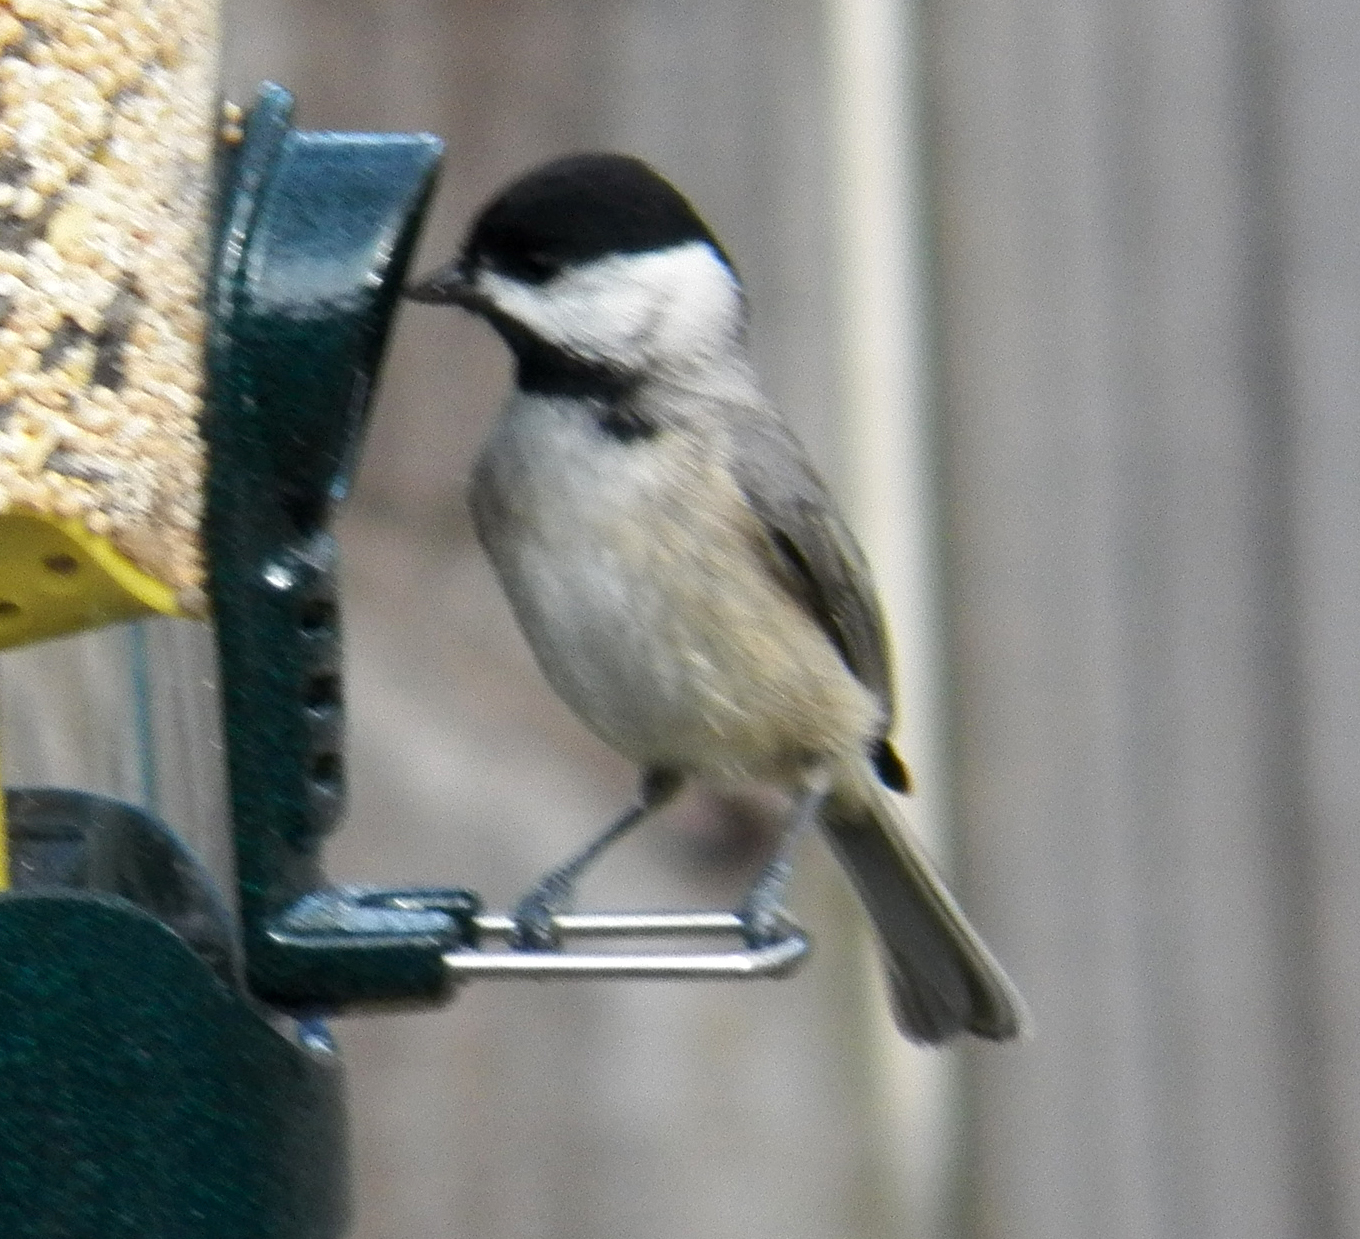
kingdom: Animalia
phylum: Chordata
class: Aves
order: Passeriformes
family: Paridae
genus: Poecile
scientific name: Poecile carolinensis
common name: Carolina chickadee
